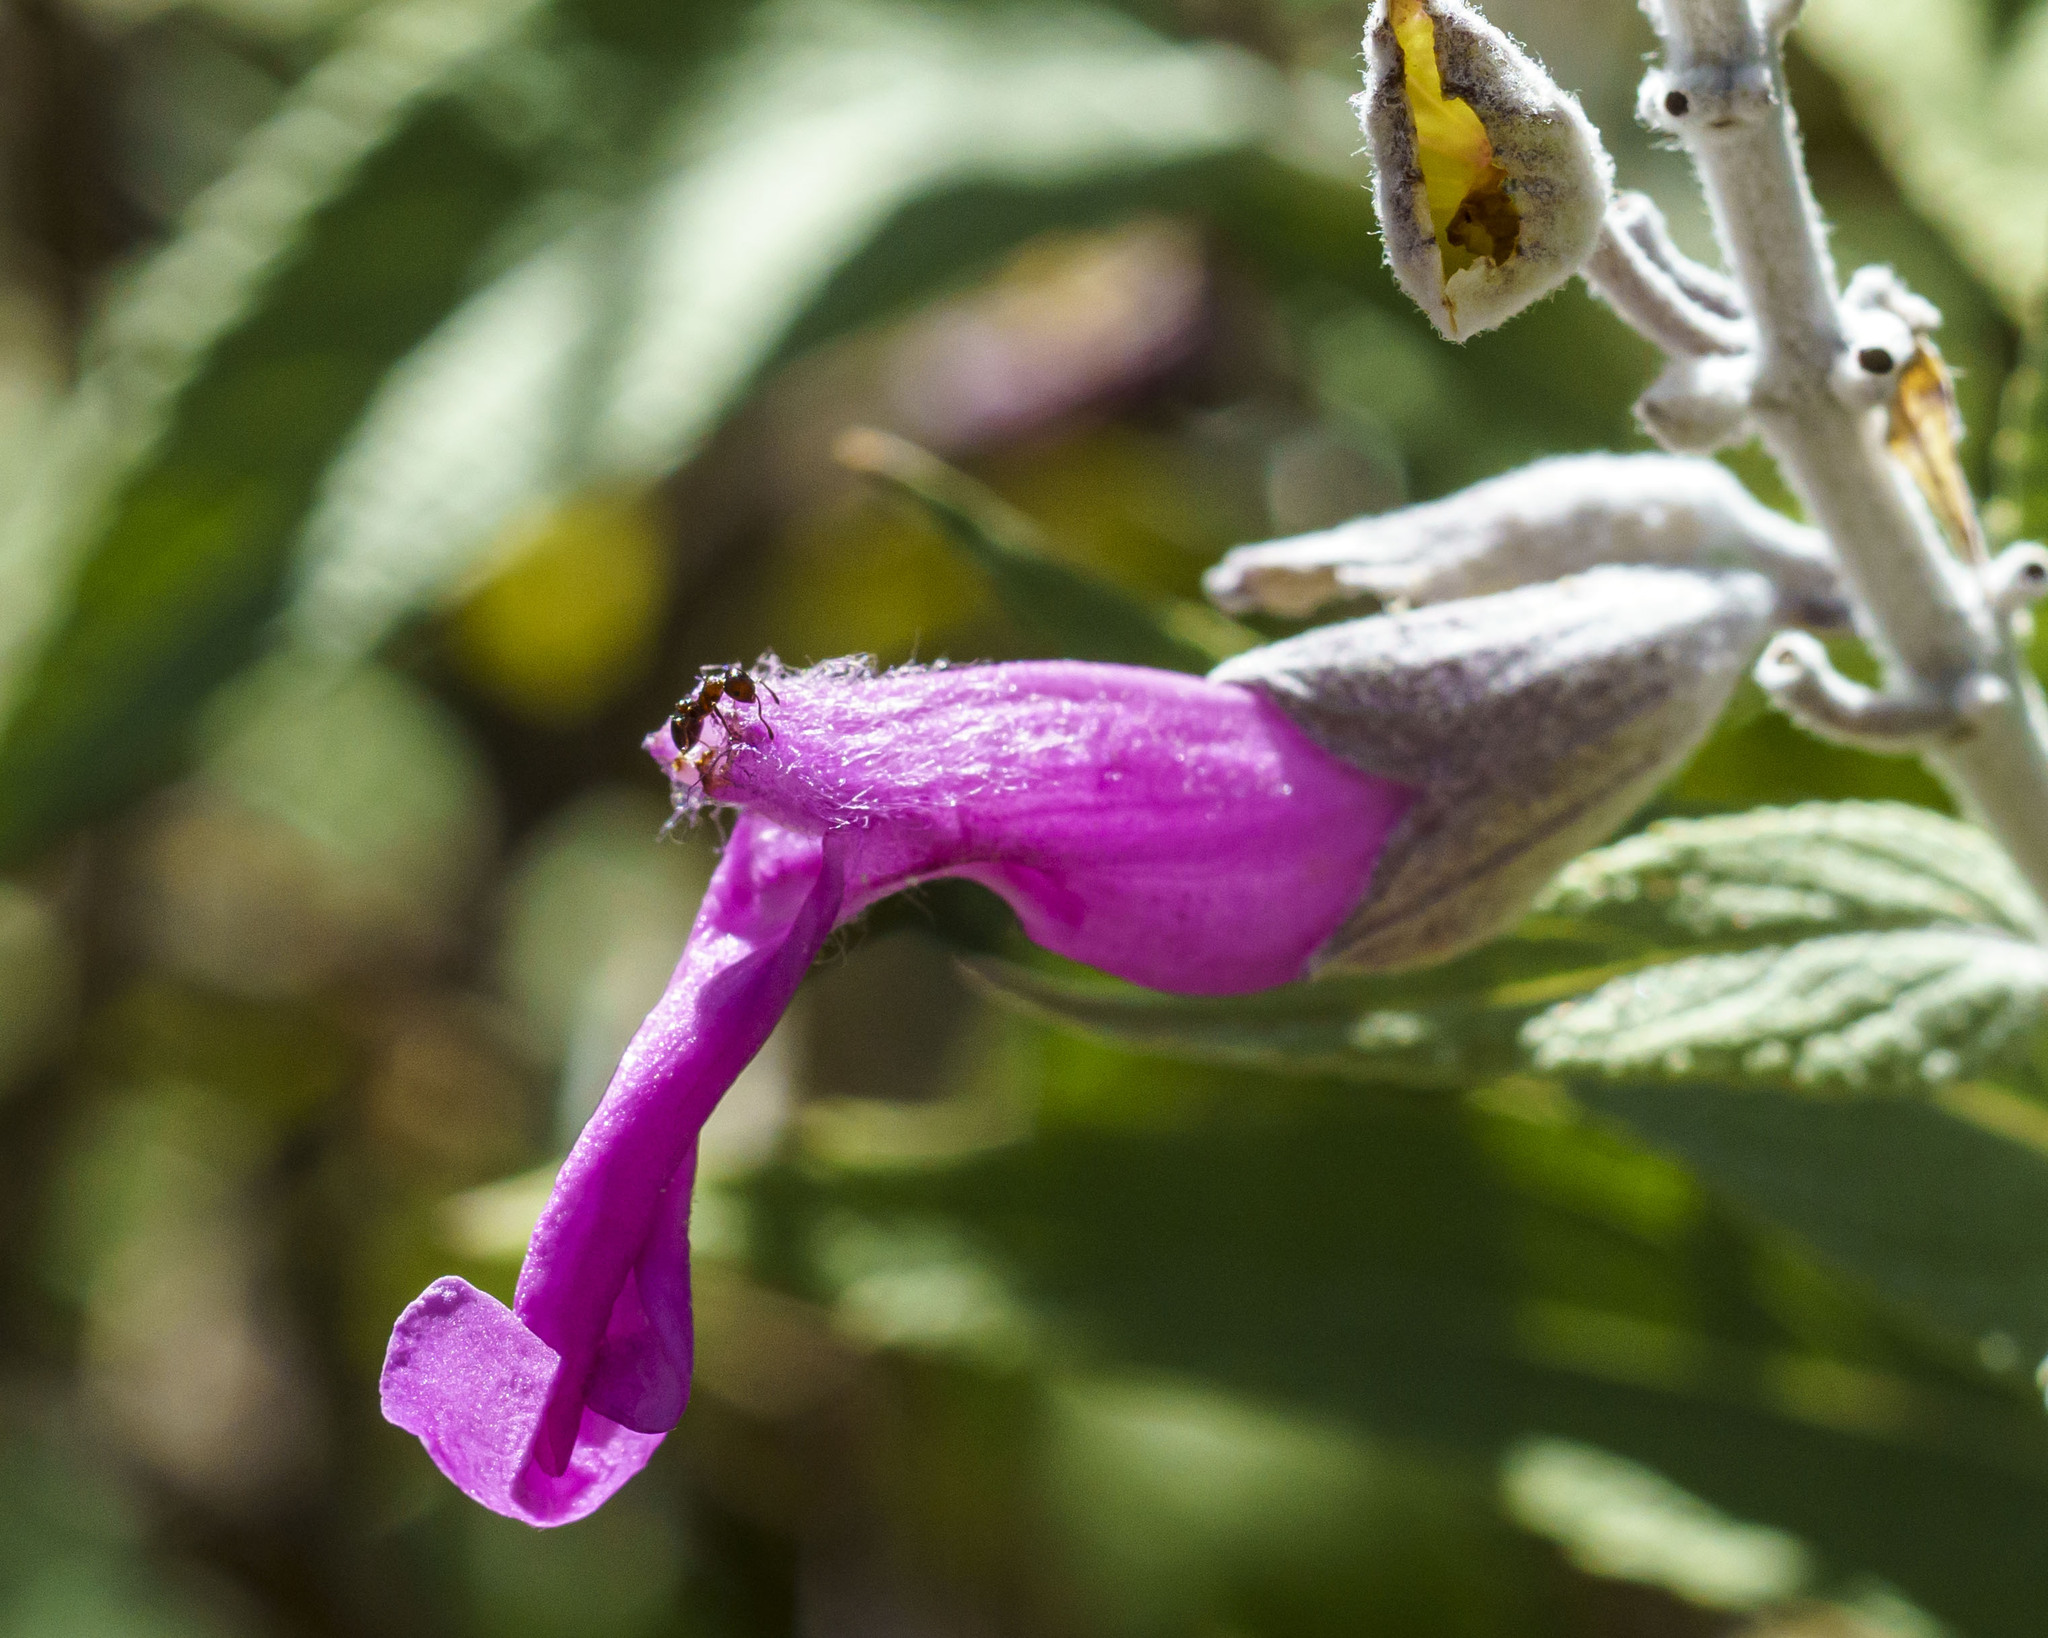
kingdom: Plantae
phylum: Tracheophyta
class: Magnoliopsida
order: Lamiales
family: Lamiaceae
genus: Salvia
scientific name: Salvia moranii
